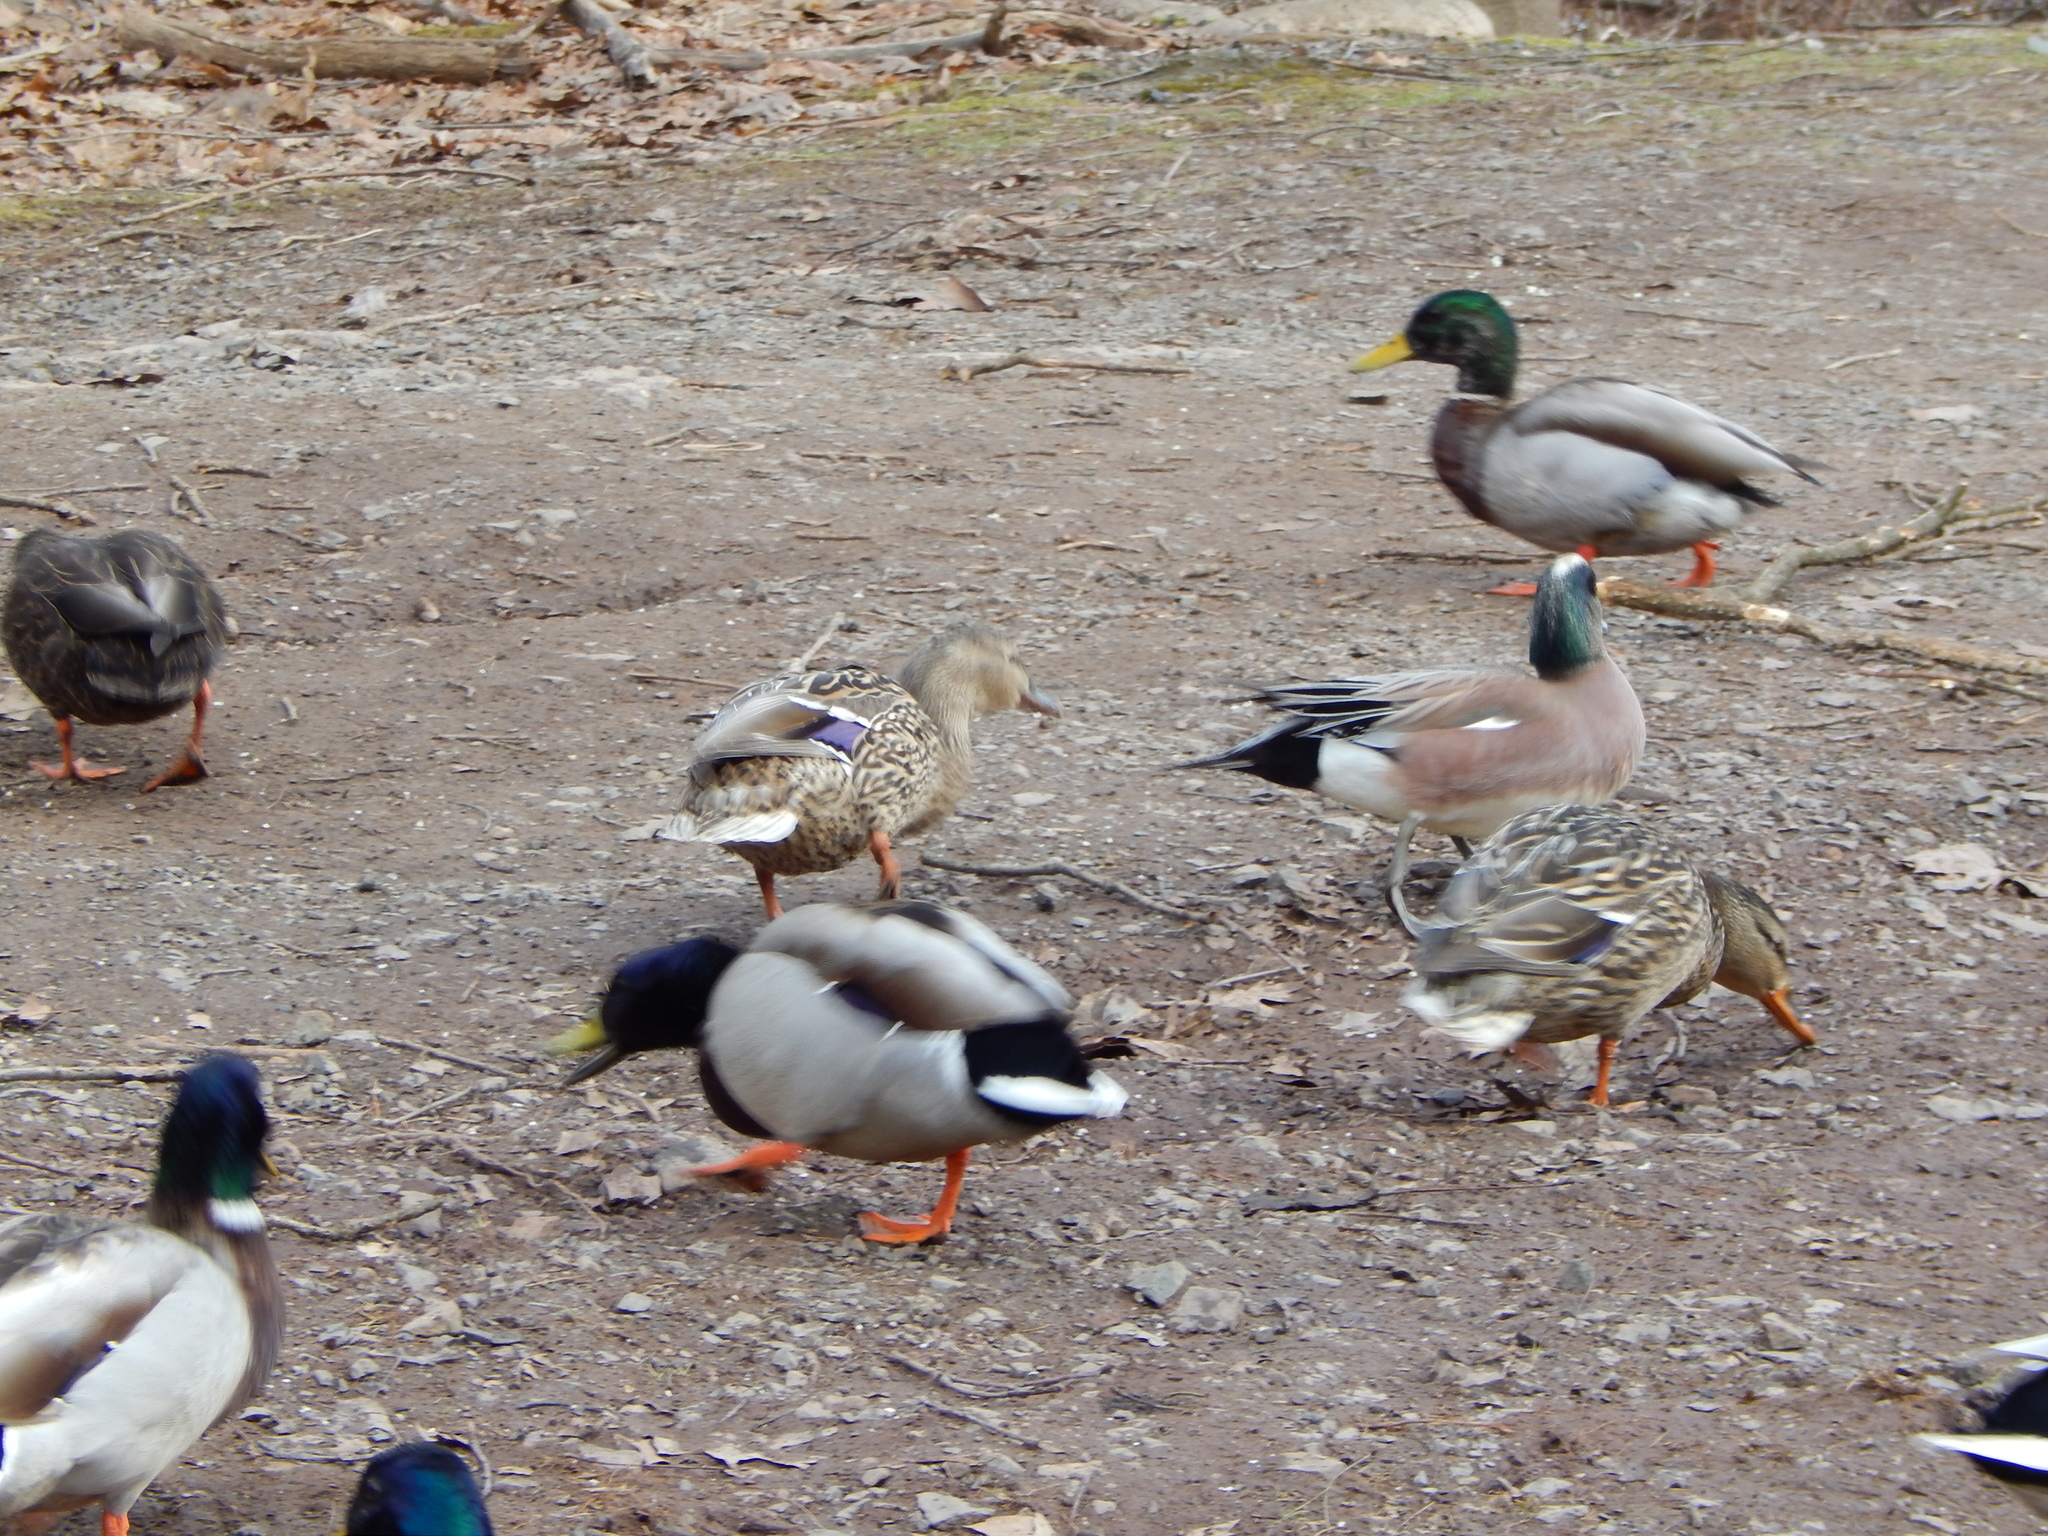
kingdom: Animalia
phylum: Chordata
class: Aves
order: Anseriformes
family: Anatidae
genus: Anas
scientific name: Anas platyrhynchos
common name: Mallard
